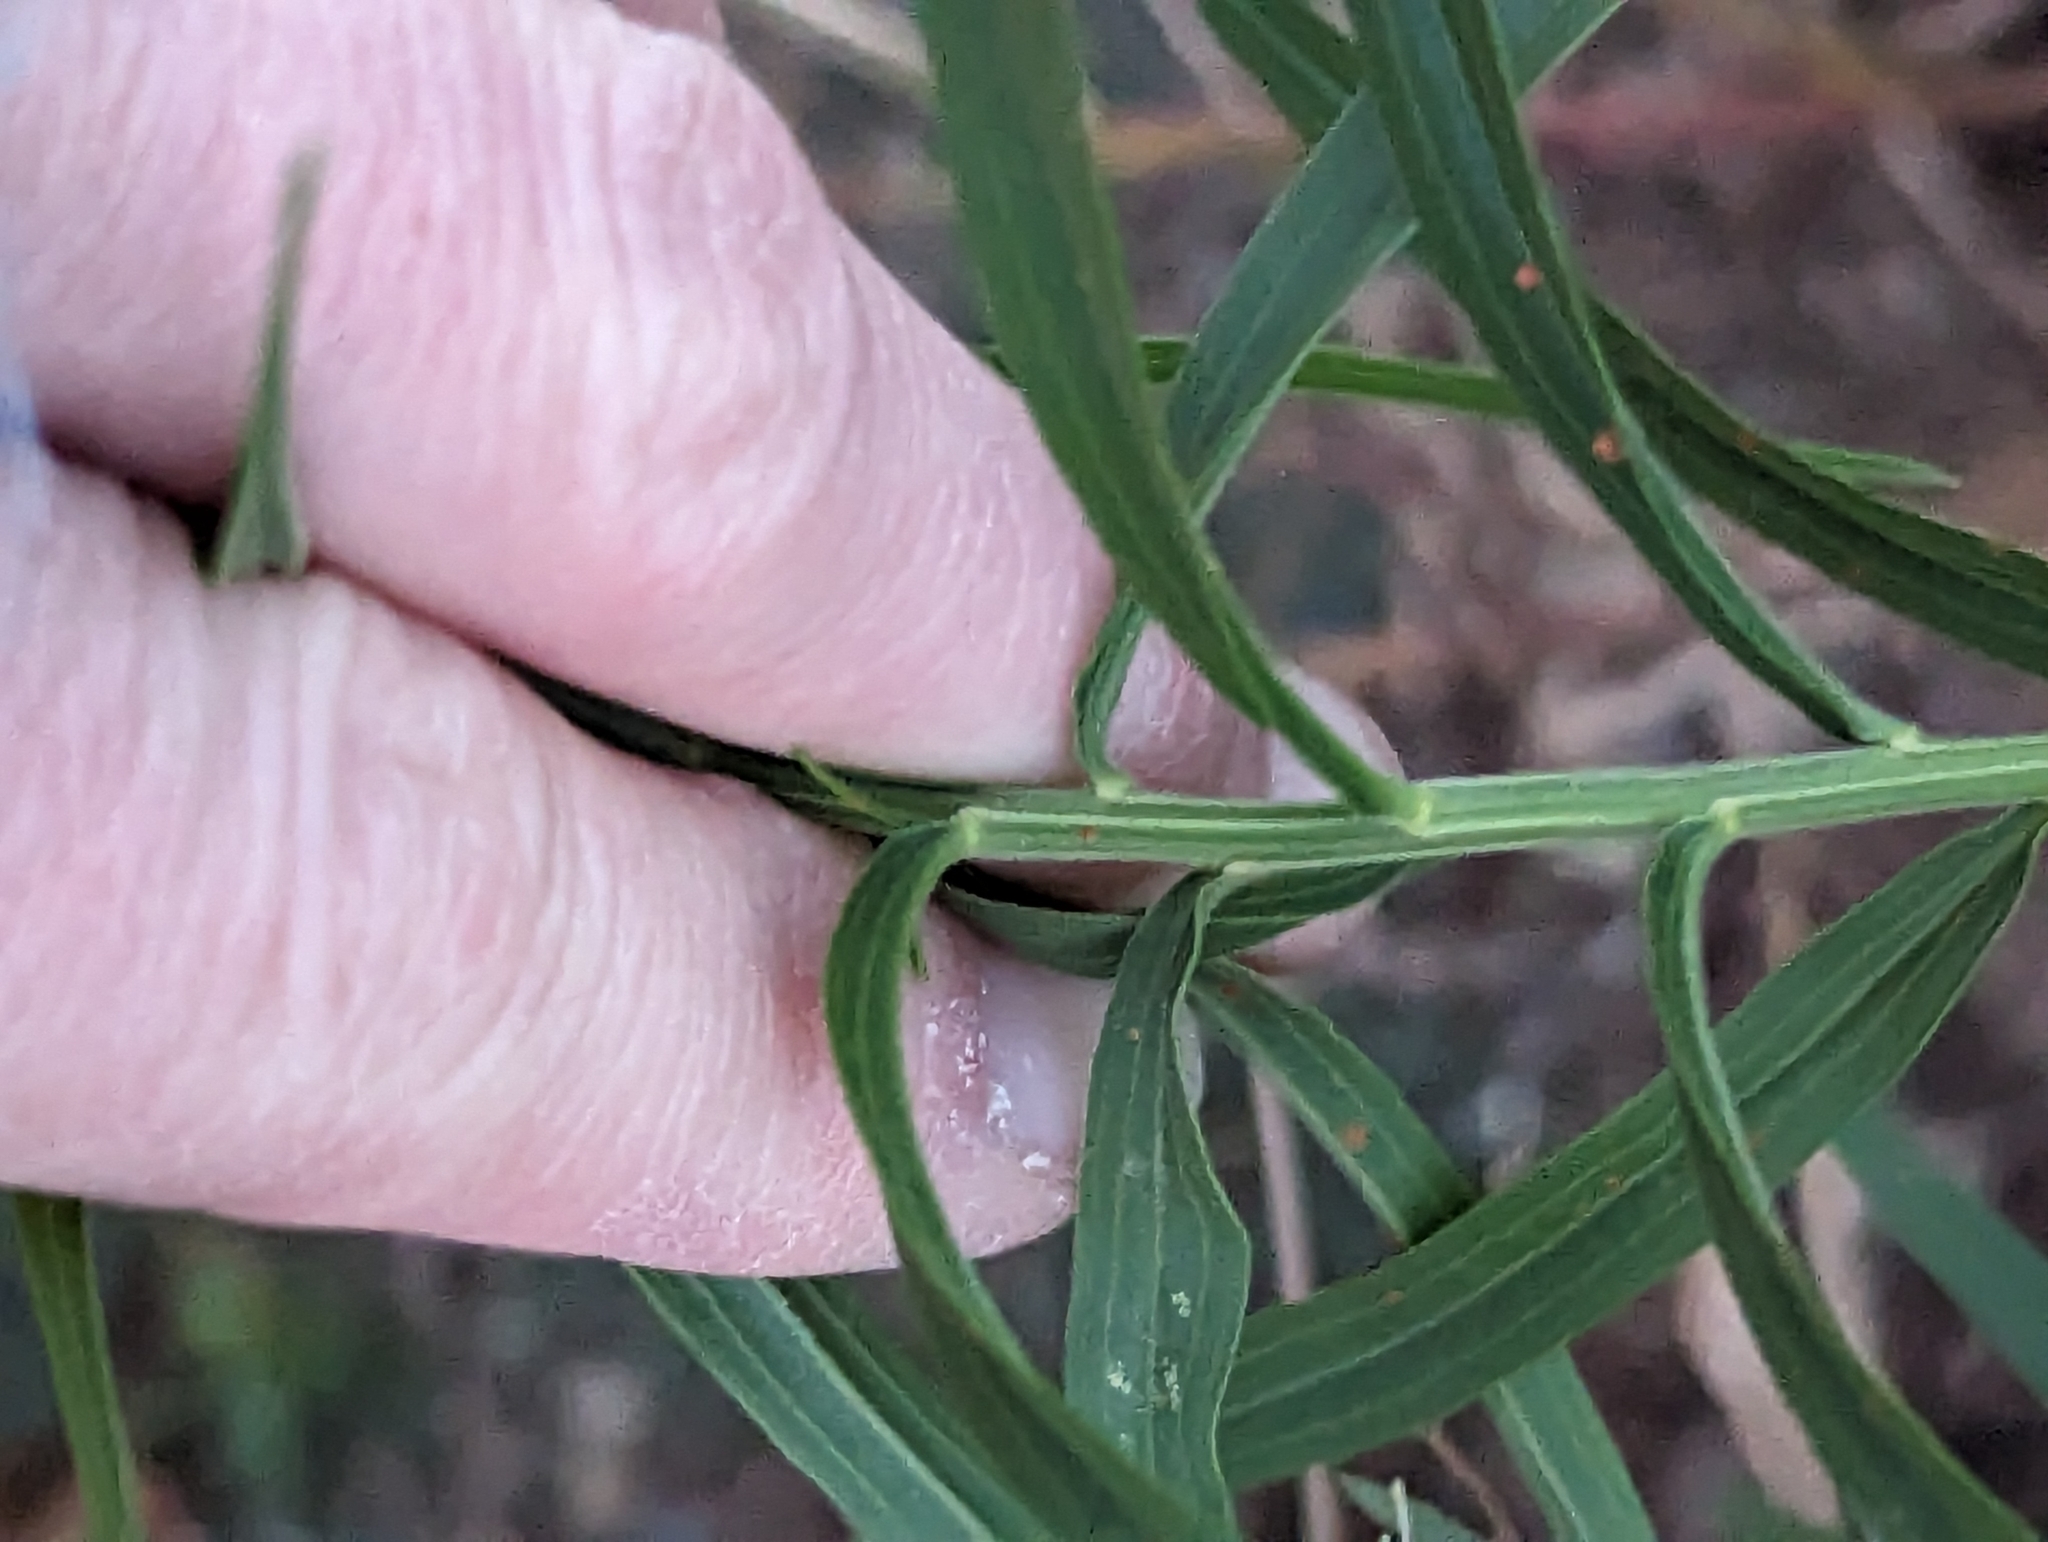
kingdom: Plantae
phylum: Tracheophyta
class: Magnoliopsida
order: Asterales
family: Asteraceae
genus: Euthamia
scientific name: Euthamia graminifolia
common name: Common goldentop
